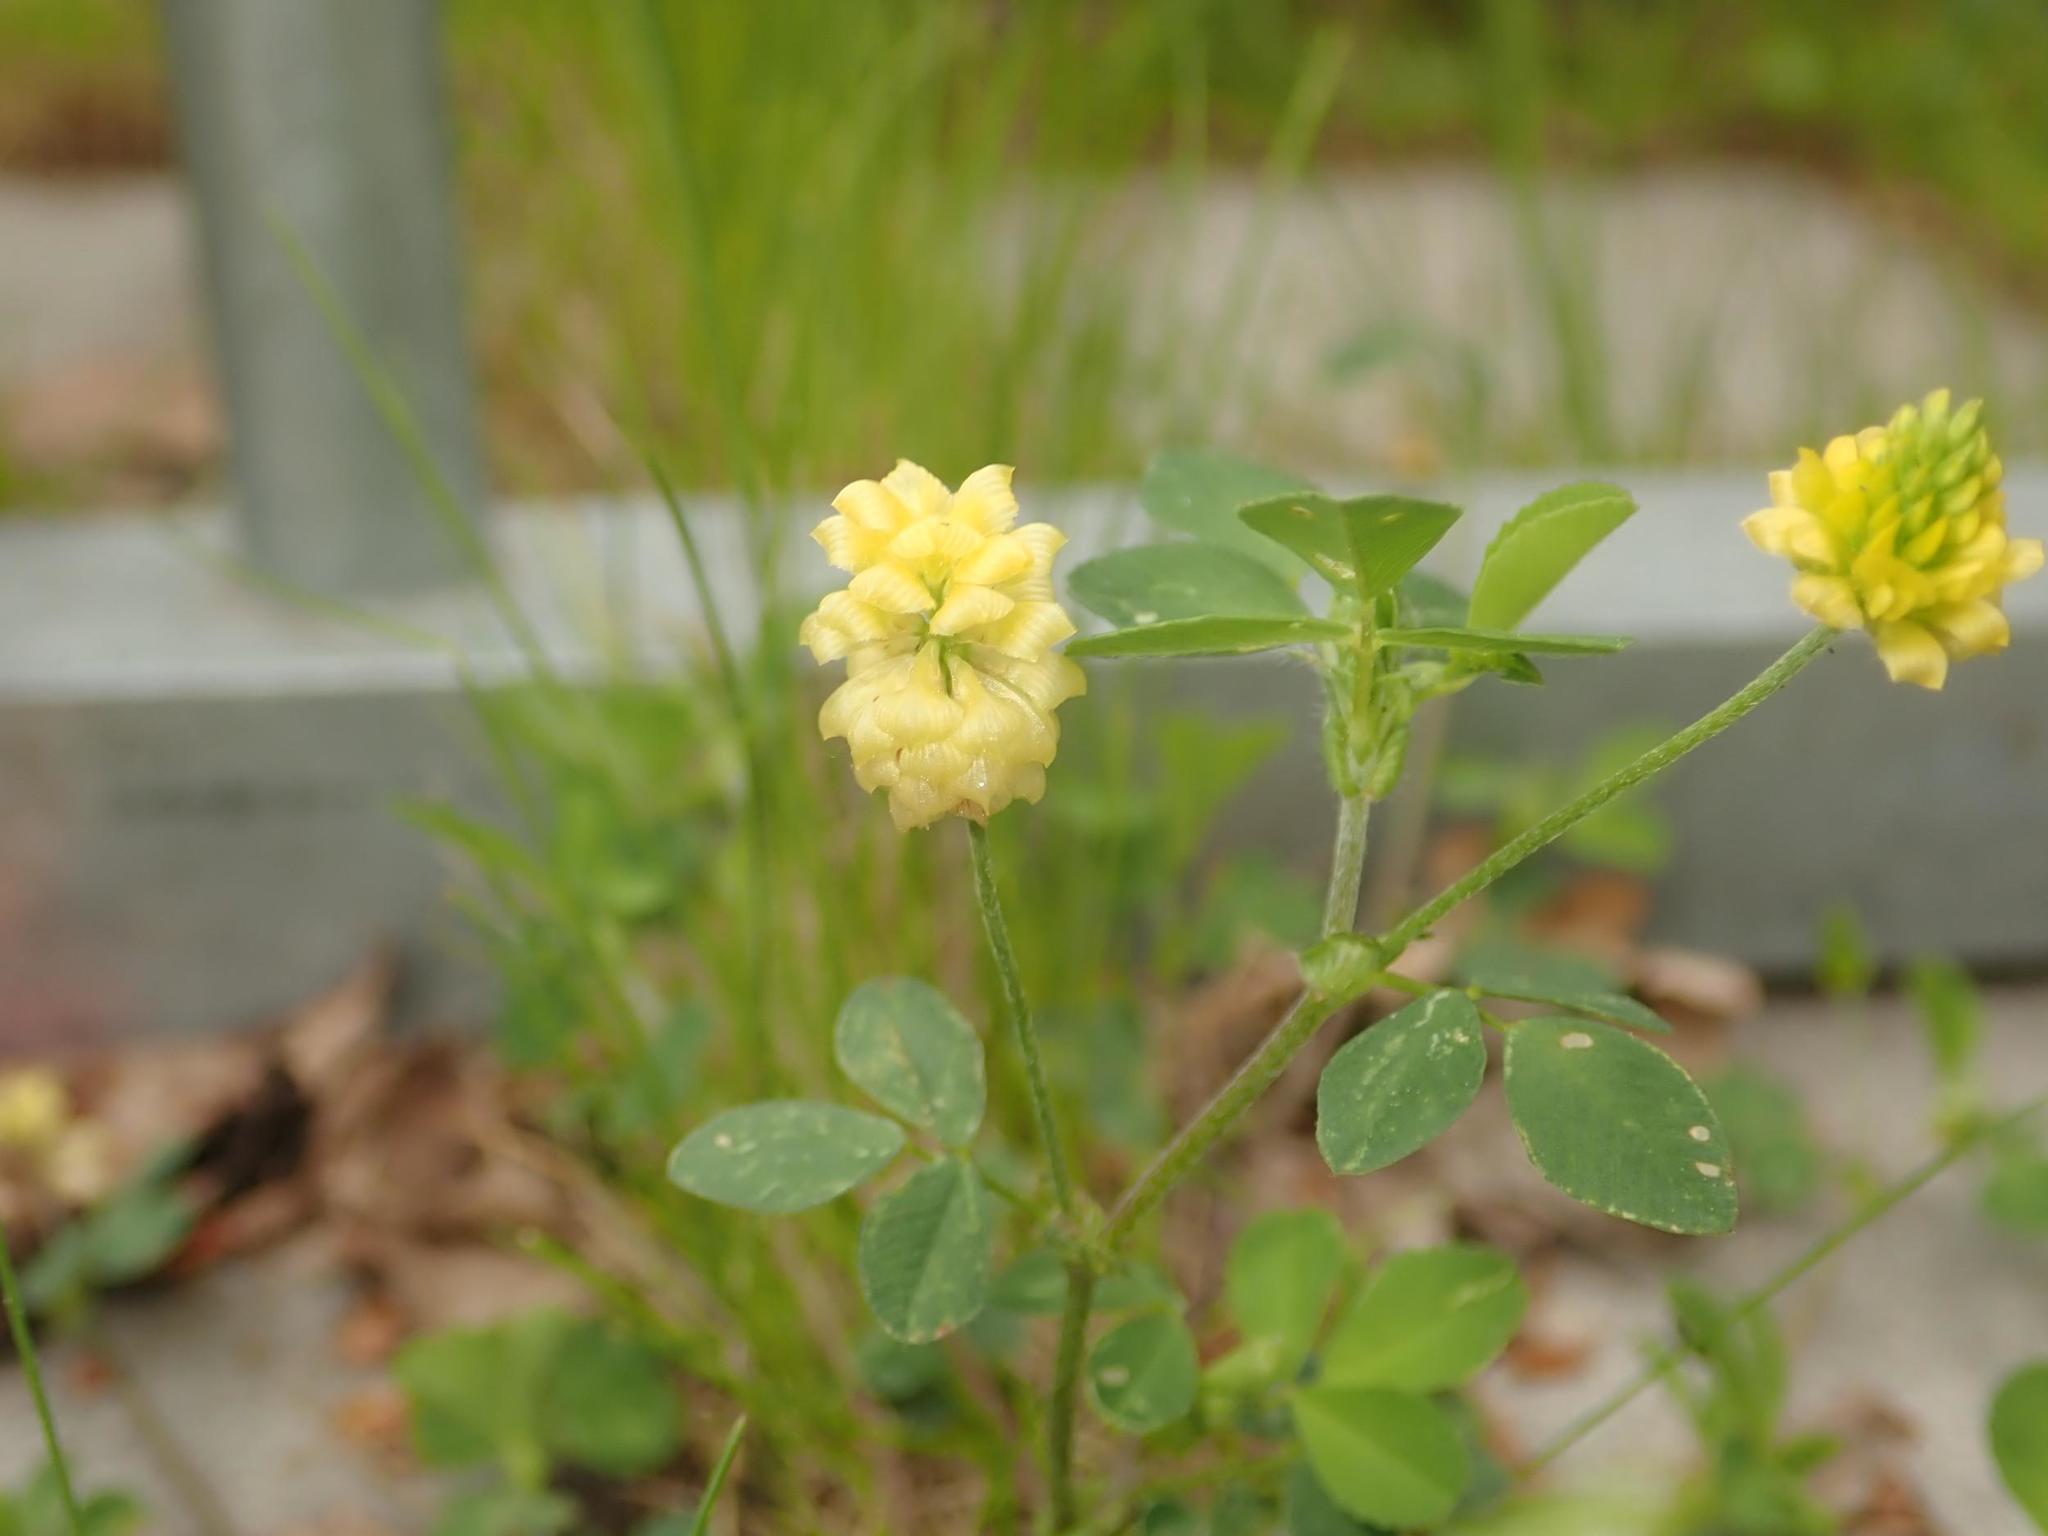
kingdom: Plantae
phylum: Tracheophyta
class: Magnoliopsida
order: Fabales
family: Fabaceae
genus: Trifolium
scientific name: Trifolium campestre
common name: Field clover
